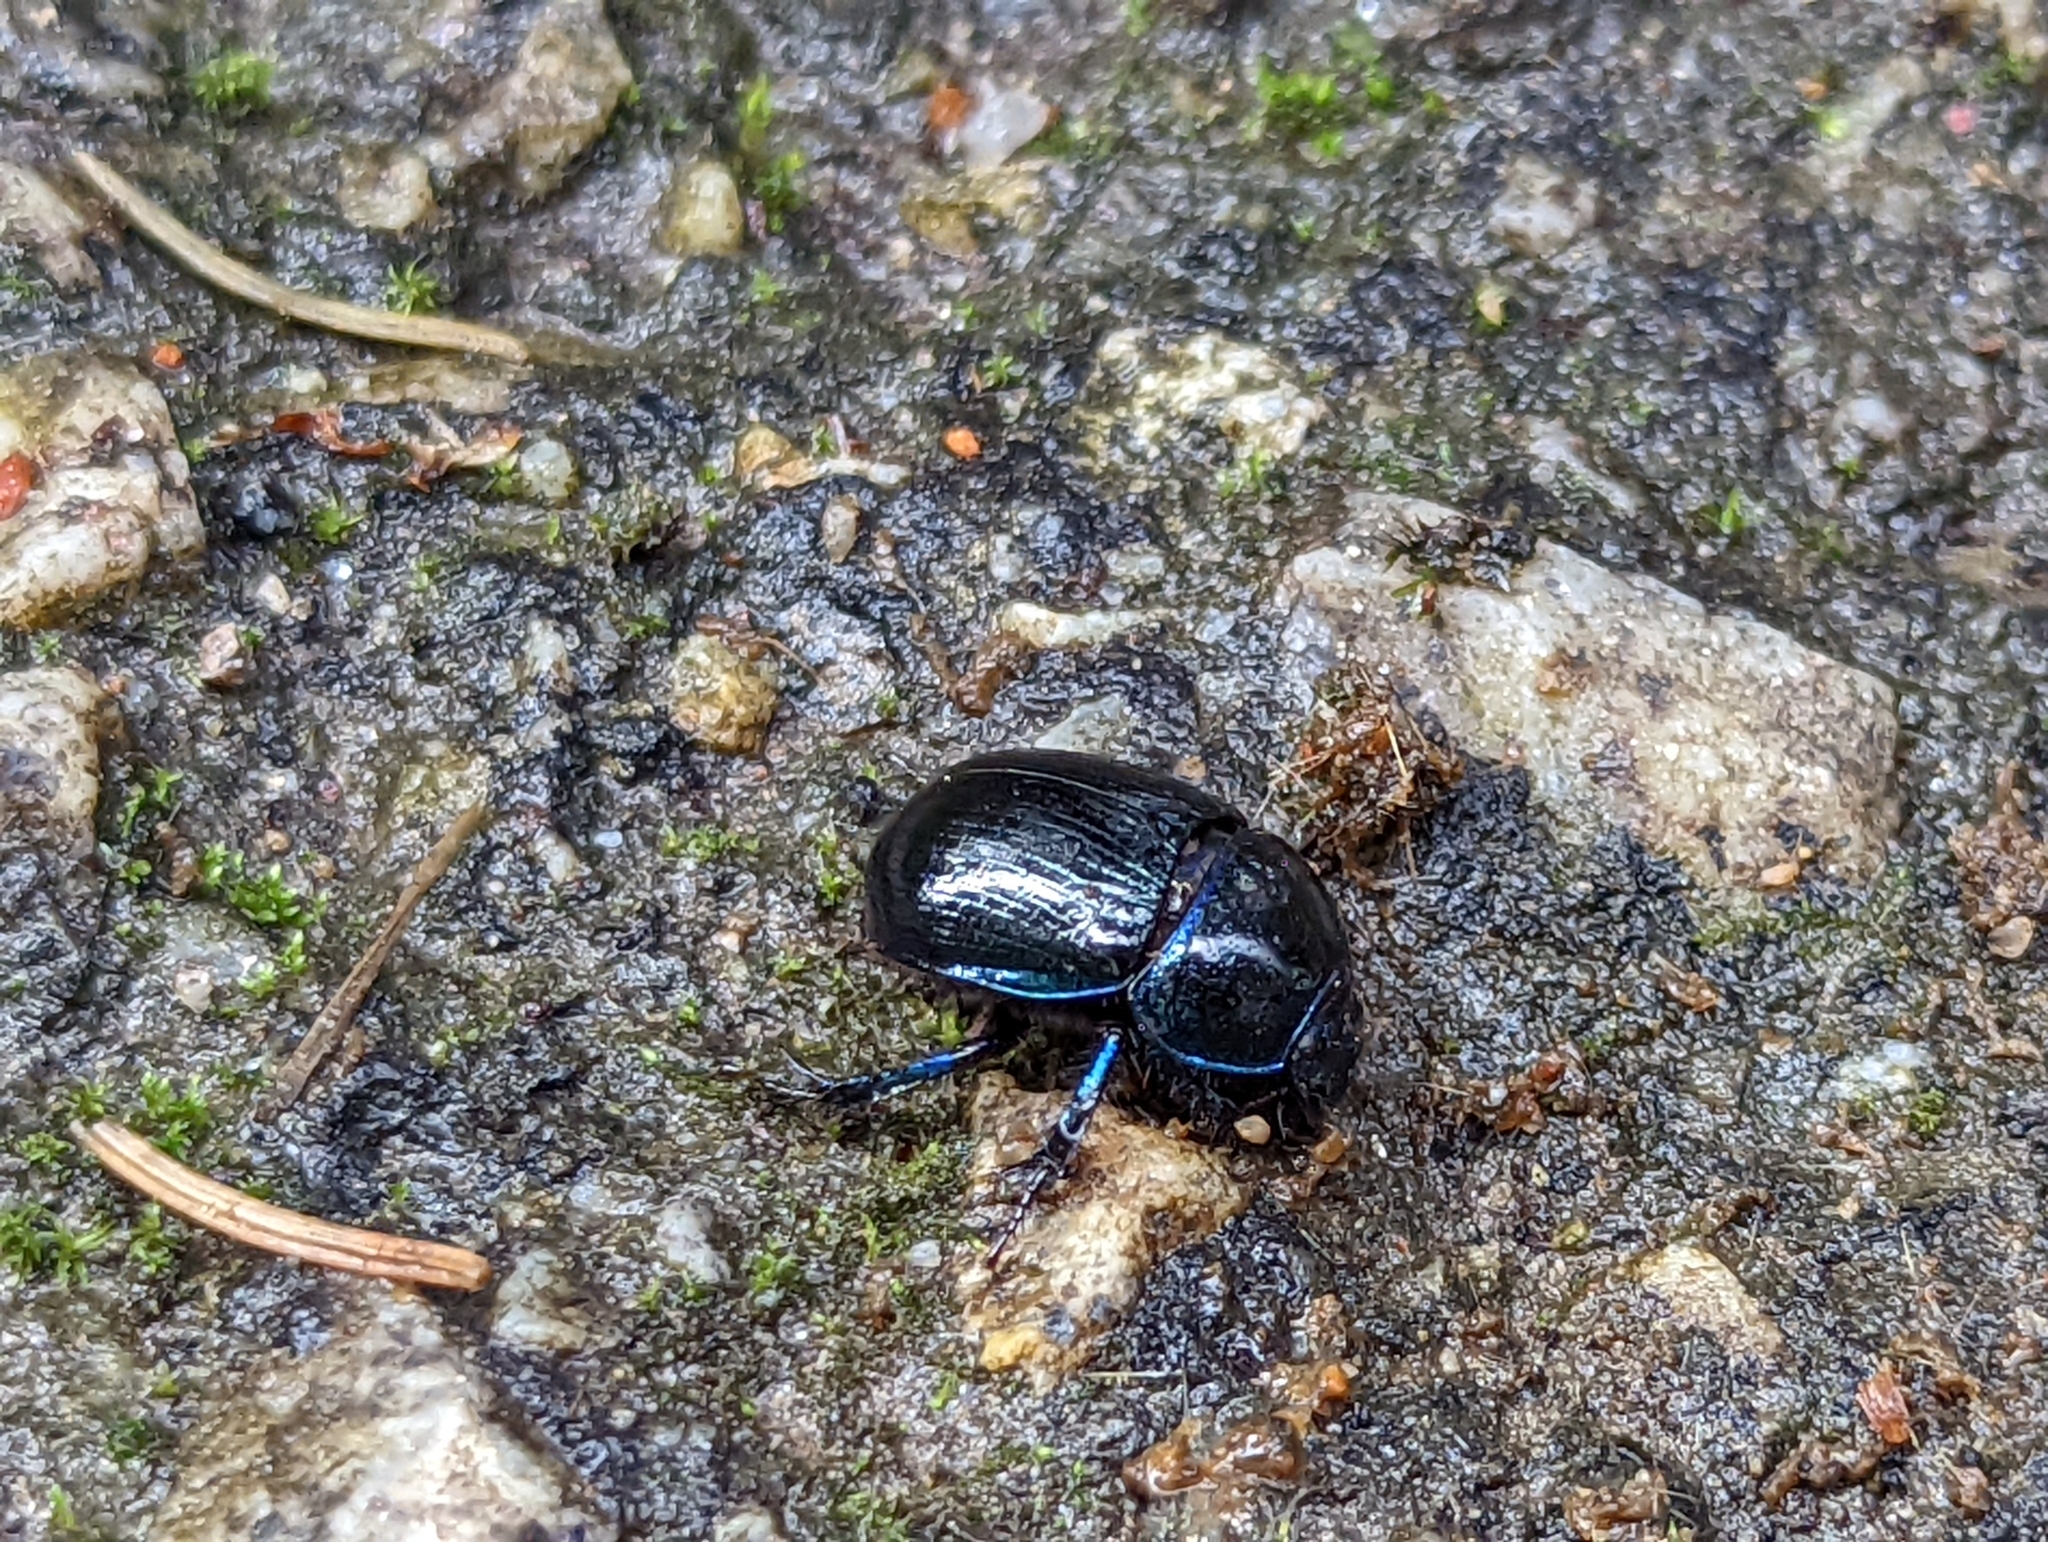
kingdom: Animalia
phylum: Arthropoda
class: Insecta
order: Coleoptera
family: Geotrupidae
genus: Anoplotrupes
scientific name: Anoplotrupes stercorosus
